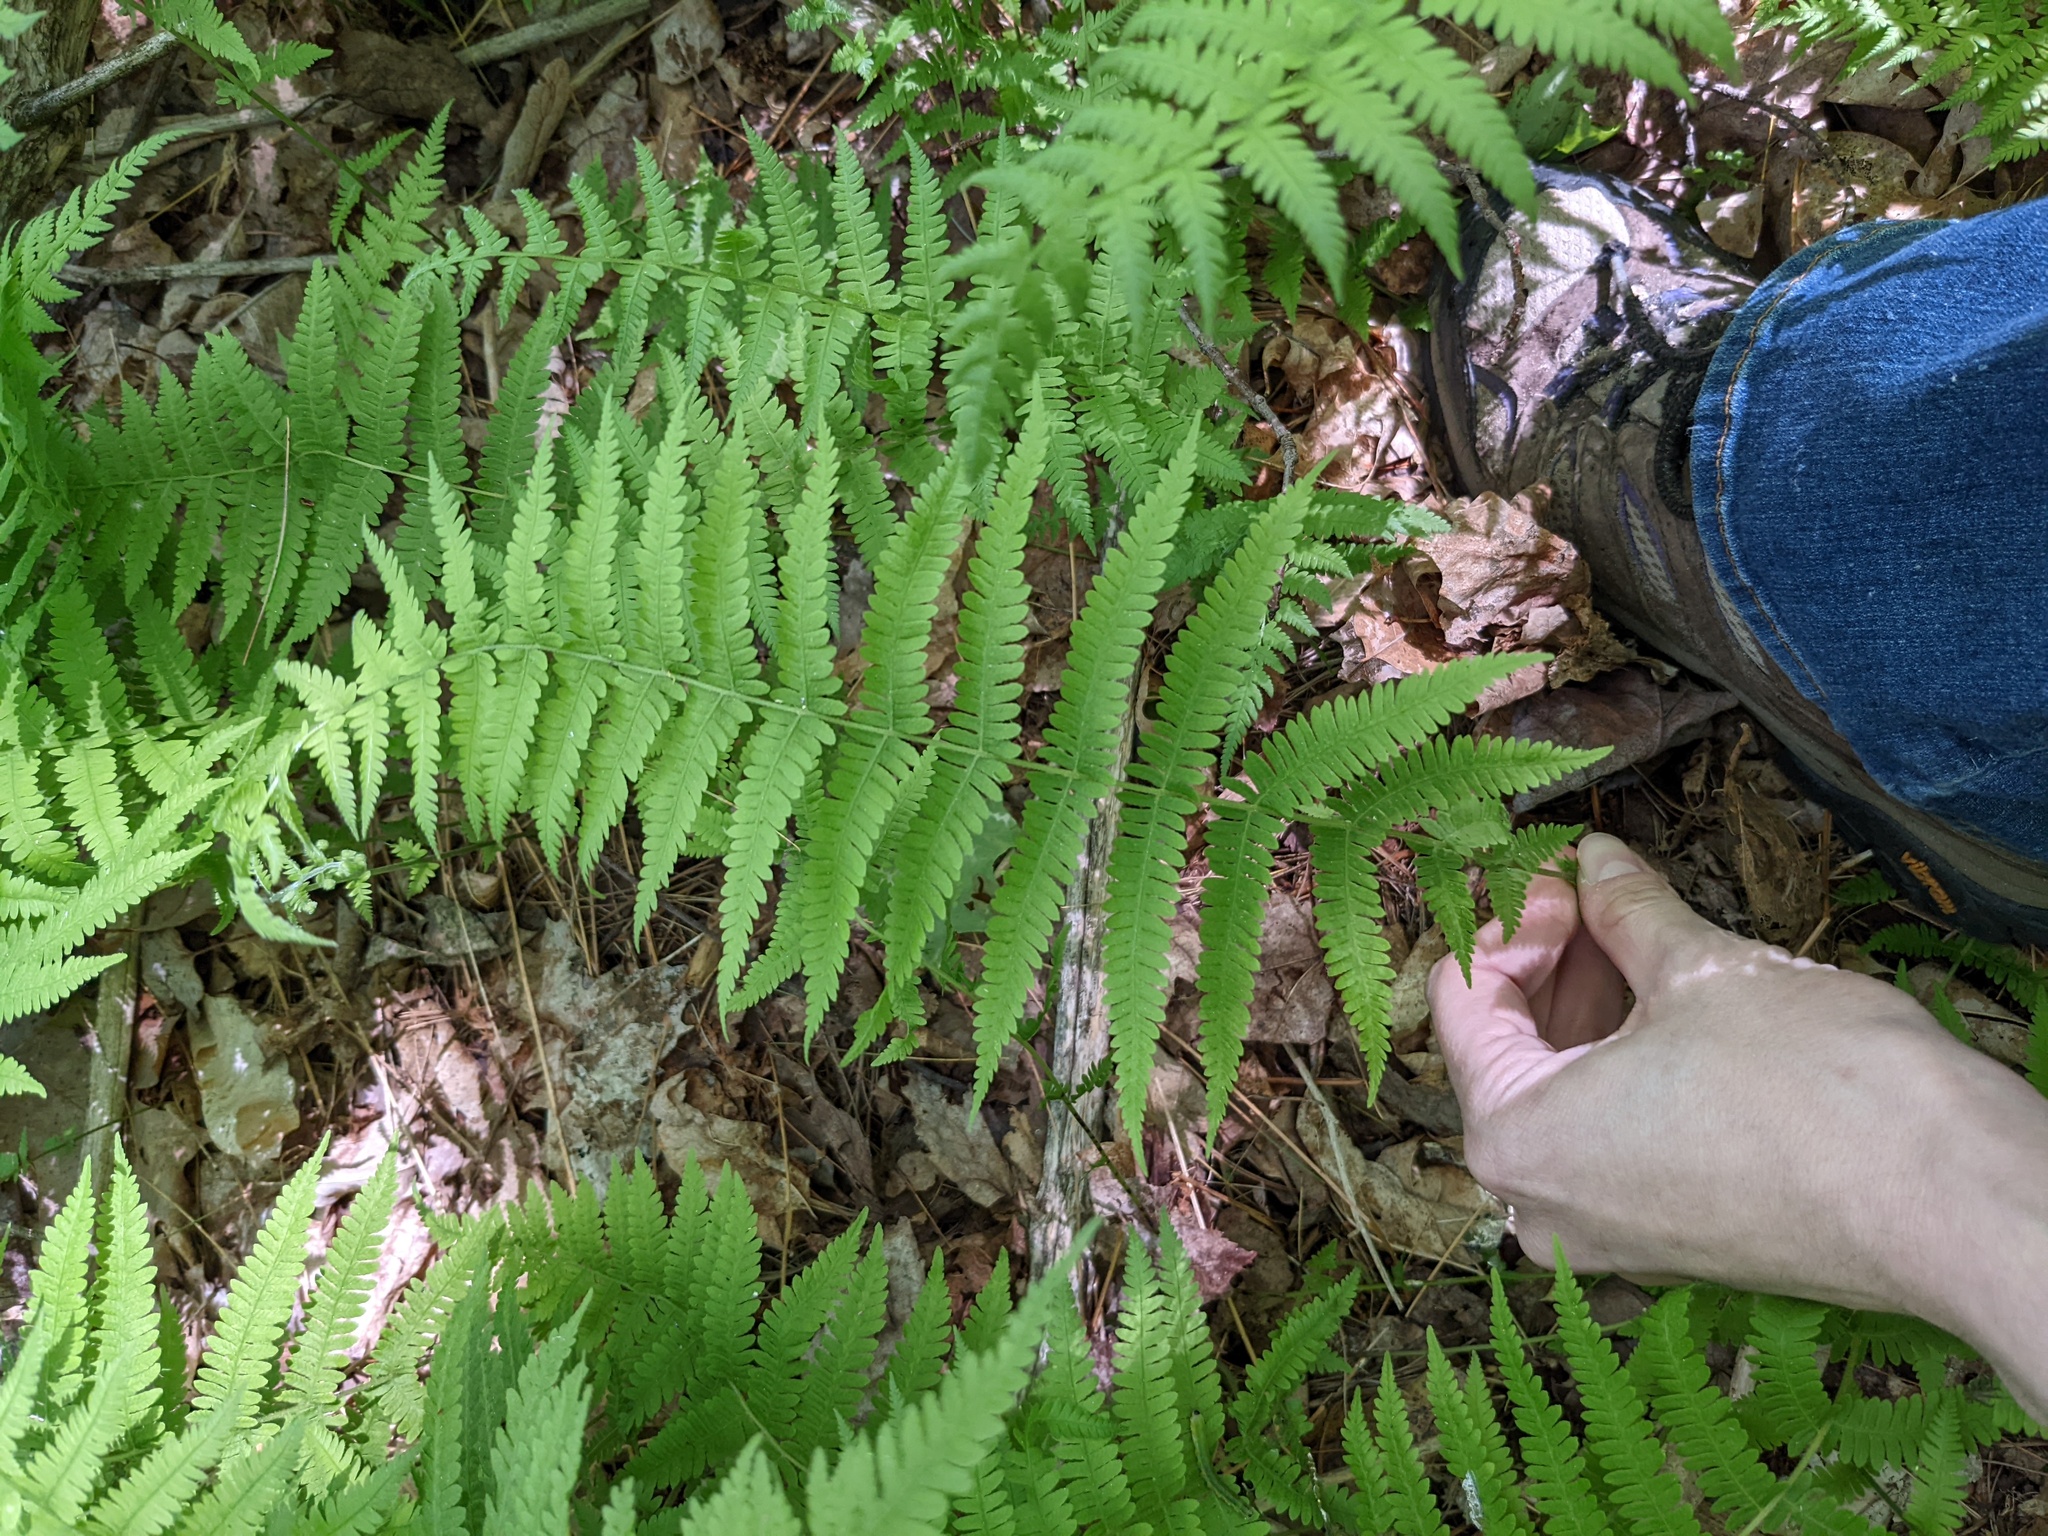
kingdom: Plantae
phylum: Tracheophyta
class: Polypodiopsida
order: Polypodiales
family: Thelypteridaceae
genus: Amauropelta
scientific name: Amauropelta noveboracensis
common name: New york fern
